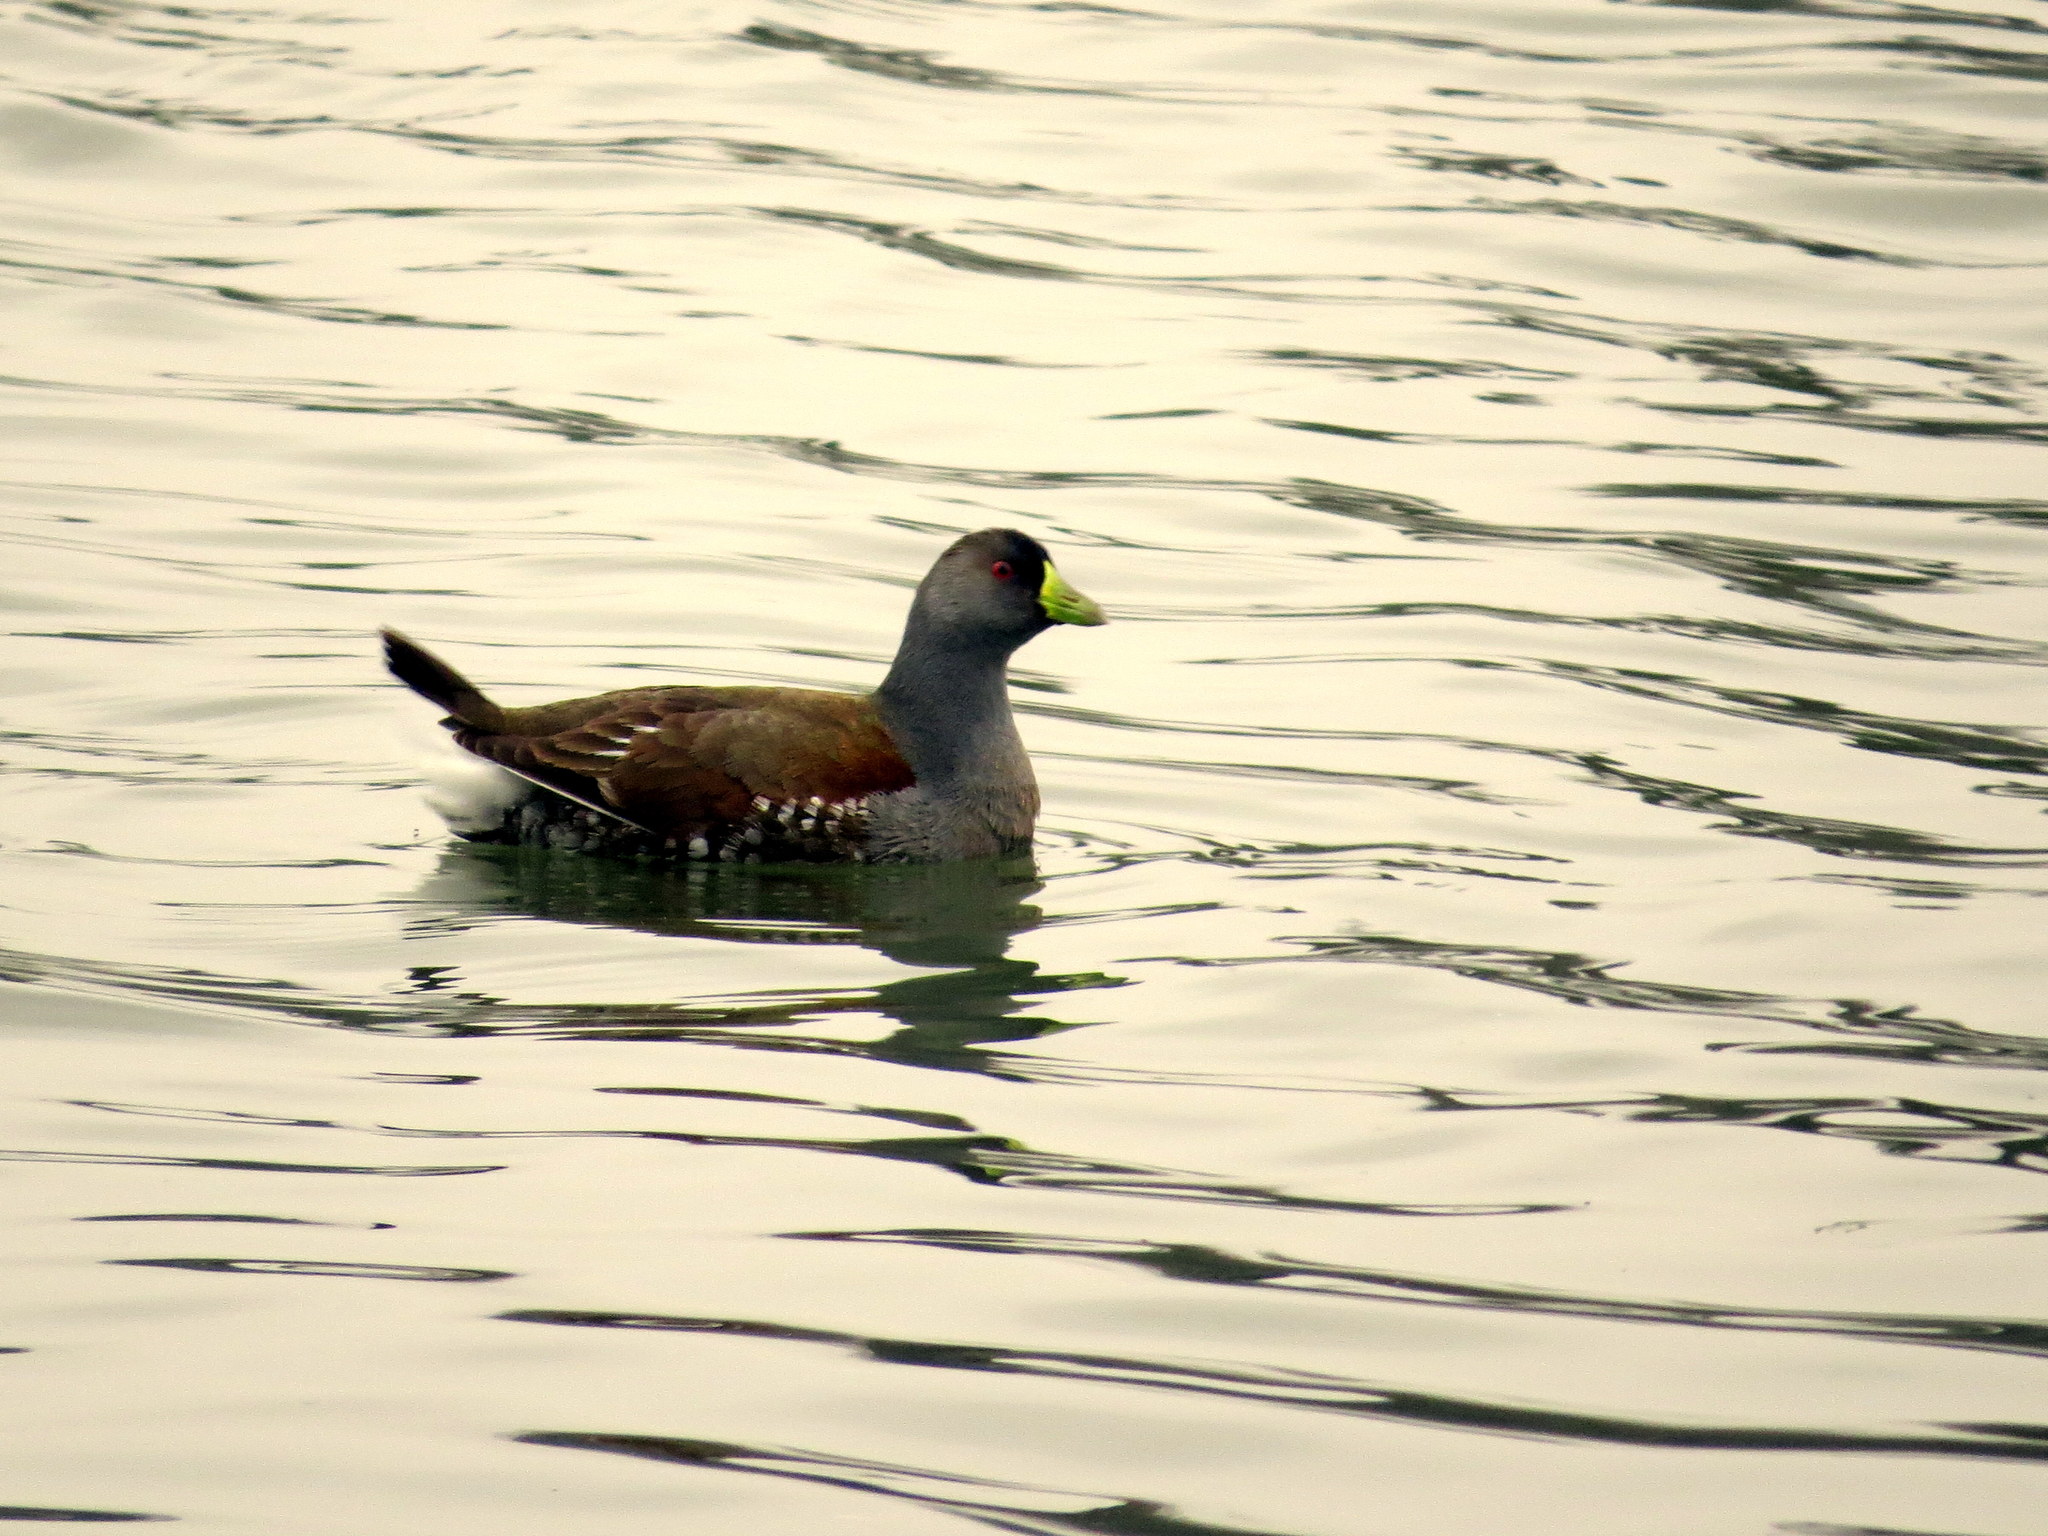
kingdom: Animalia
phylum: Chordata
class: Aves
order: Gruiformes
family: Rallidae
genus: Gallinula
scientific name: Gallinula melanops
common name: Spot-flanked gallinule
